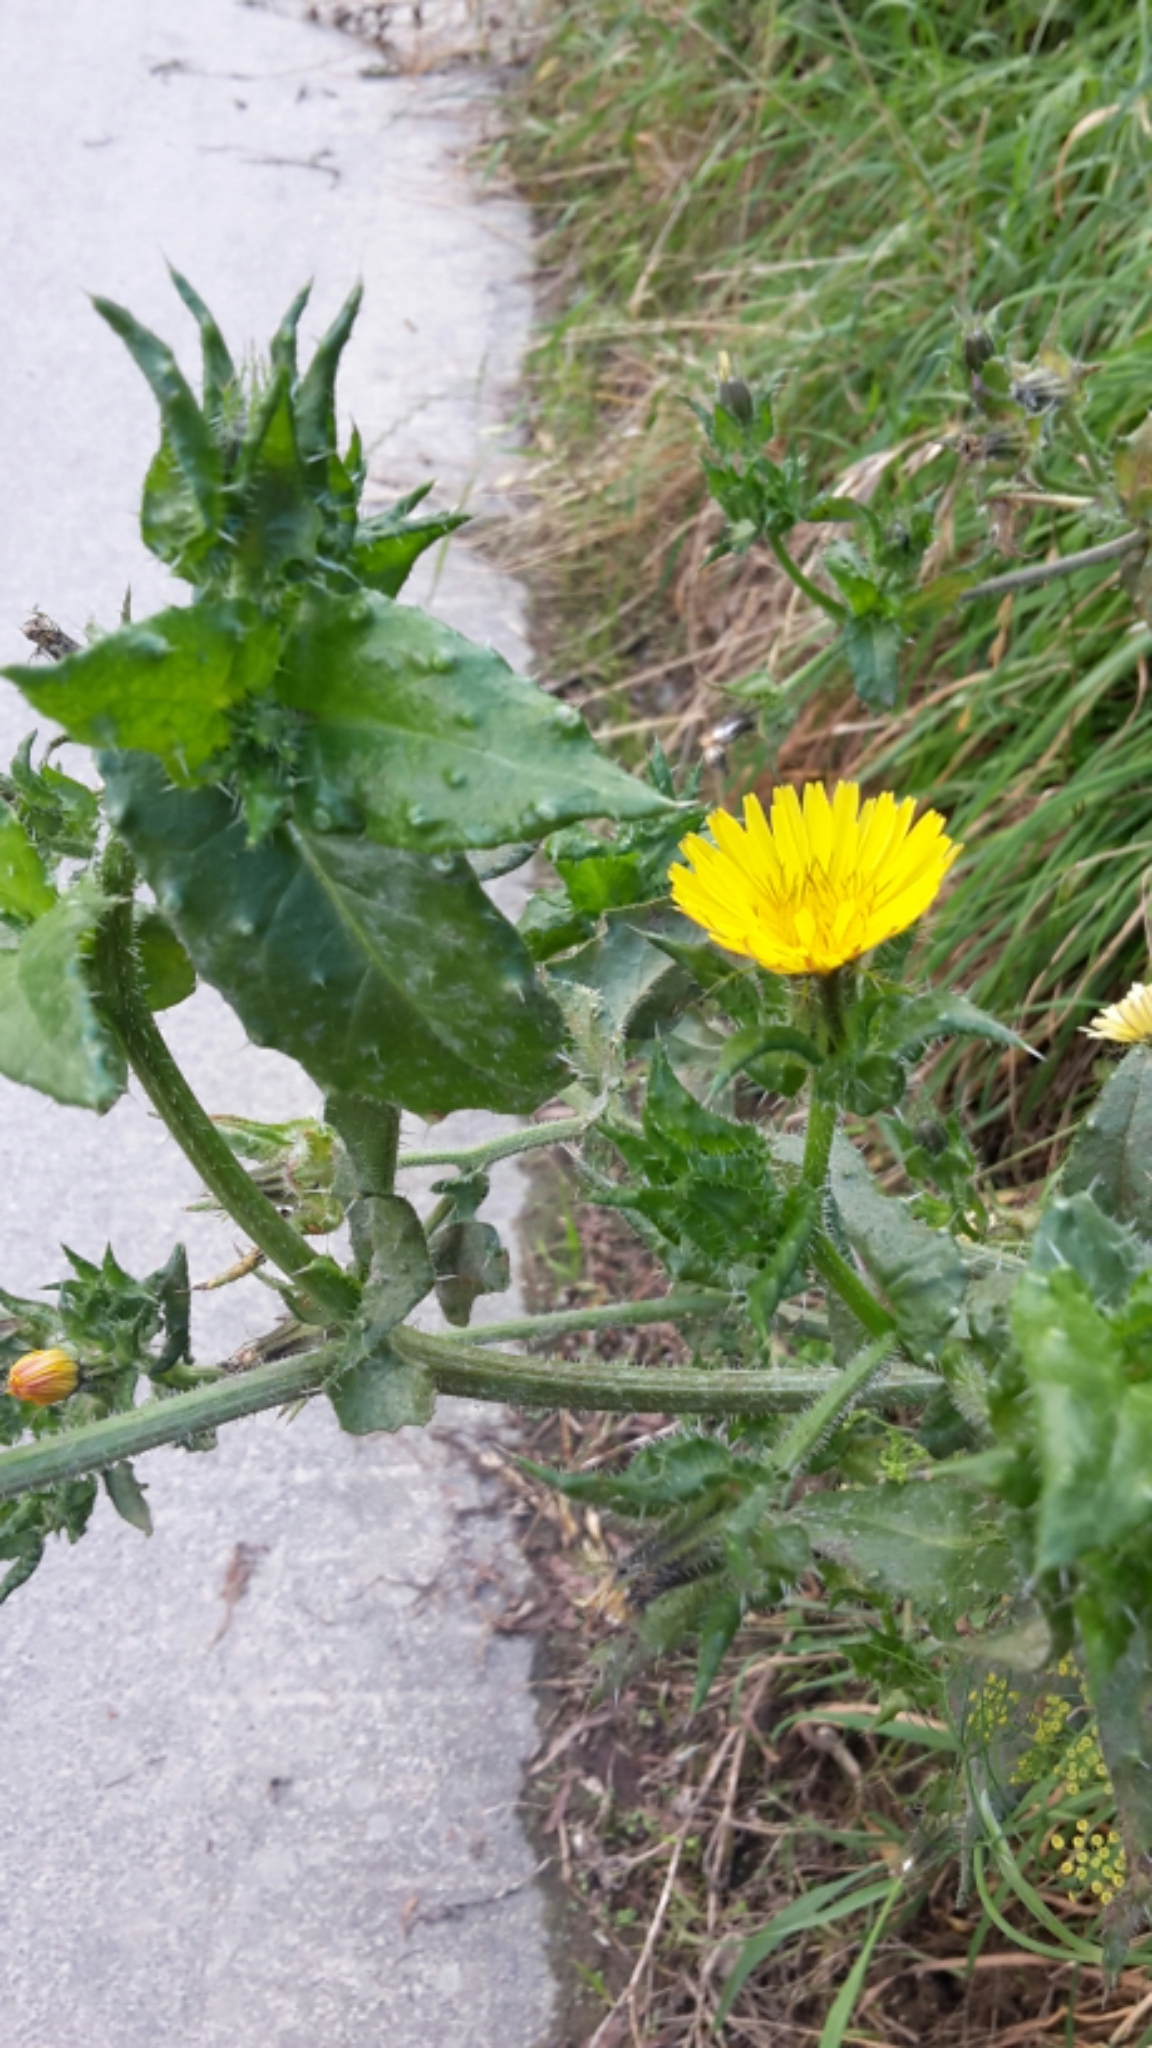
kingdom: Plantae
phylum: Tracheophyta
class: Magnoliopsida
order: Asterales
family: Asteraceae
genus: Helminthotheca
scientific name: Helminthotheca echioides
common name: Ox-tongue
